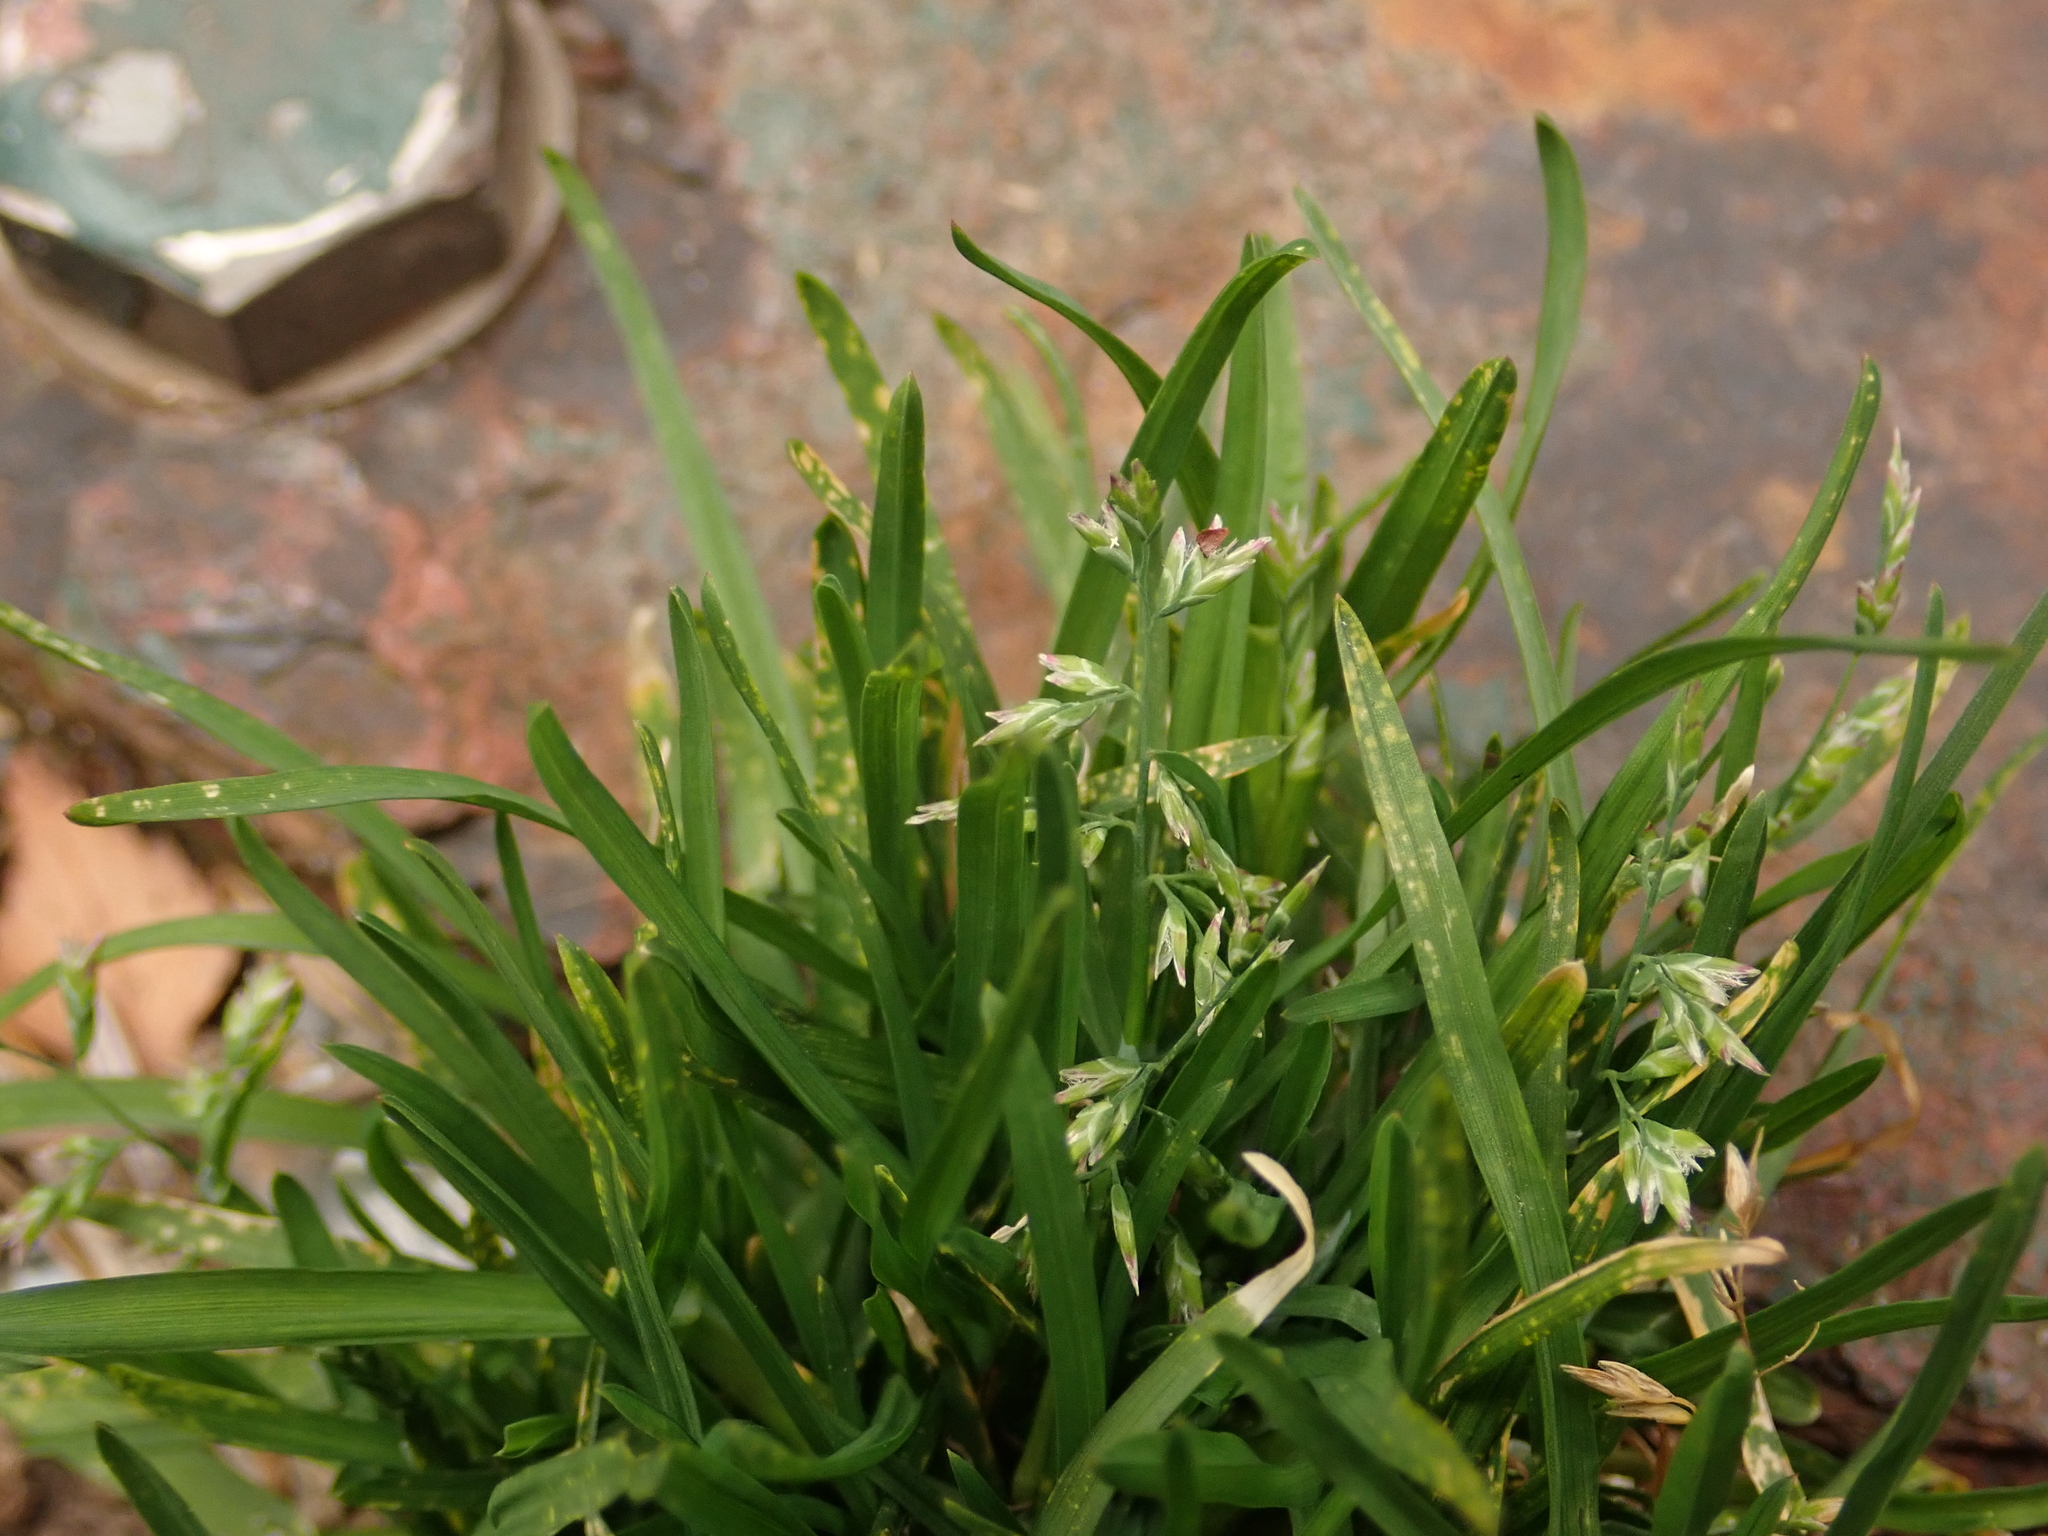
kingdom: Plantae
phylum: Tracheophyta
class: Liliopsida
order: Poales
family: Poaceae
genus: Poa
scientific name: Poa annua
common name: Annual bluegrass
